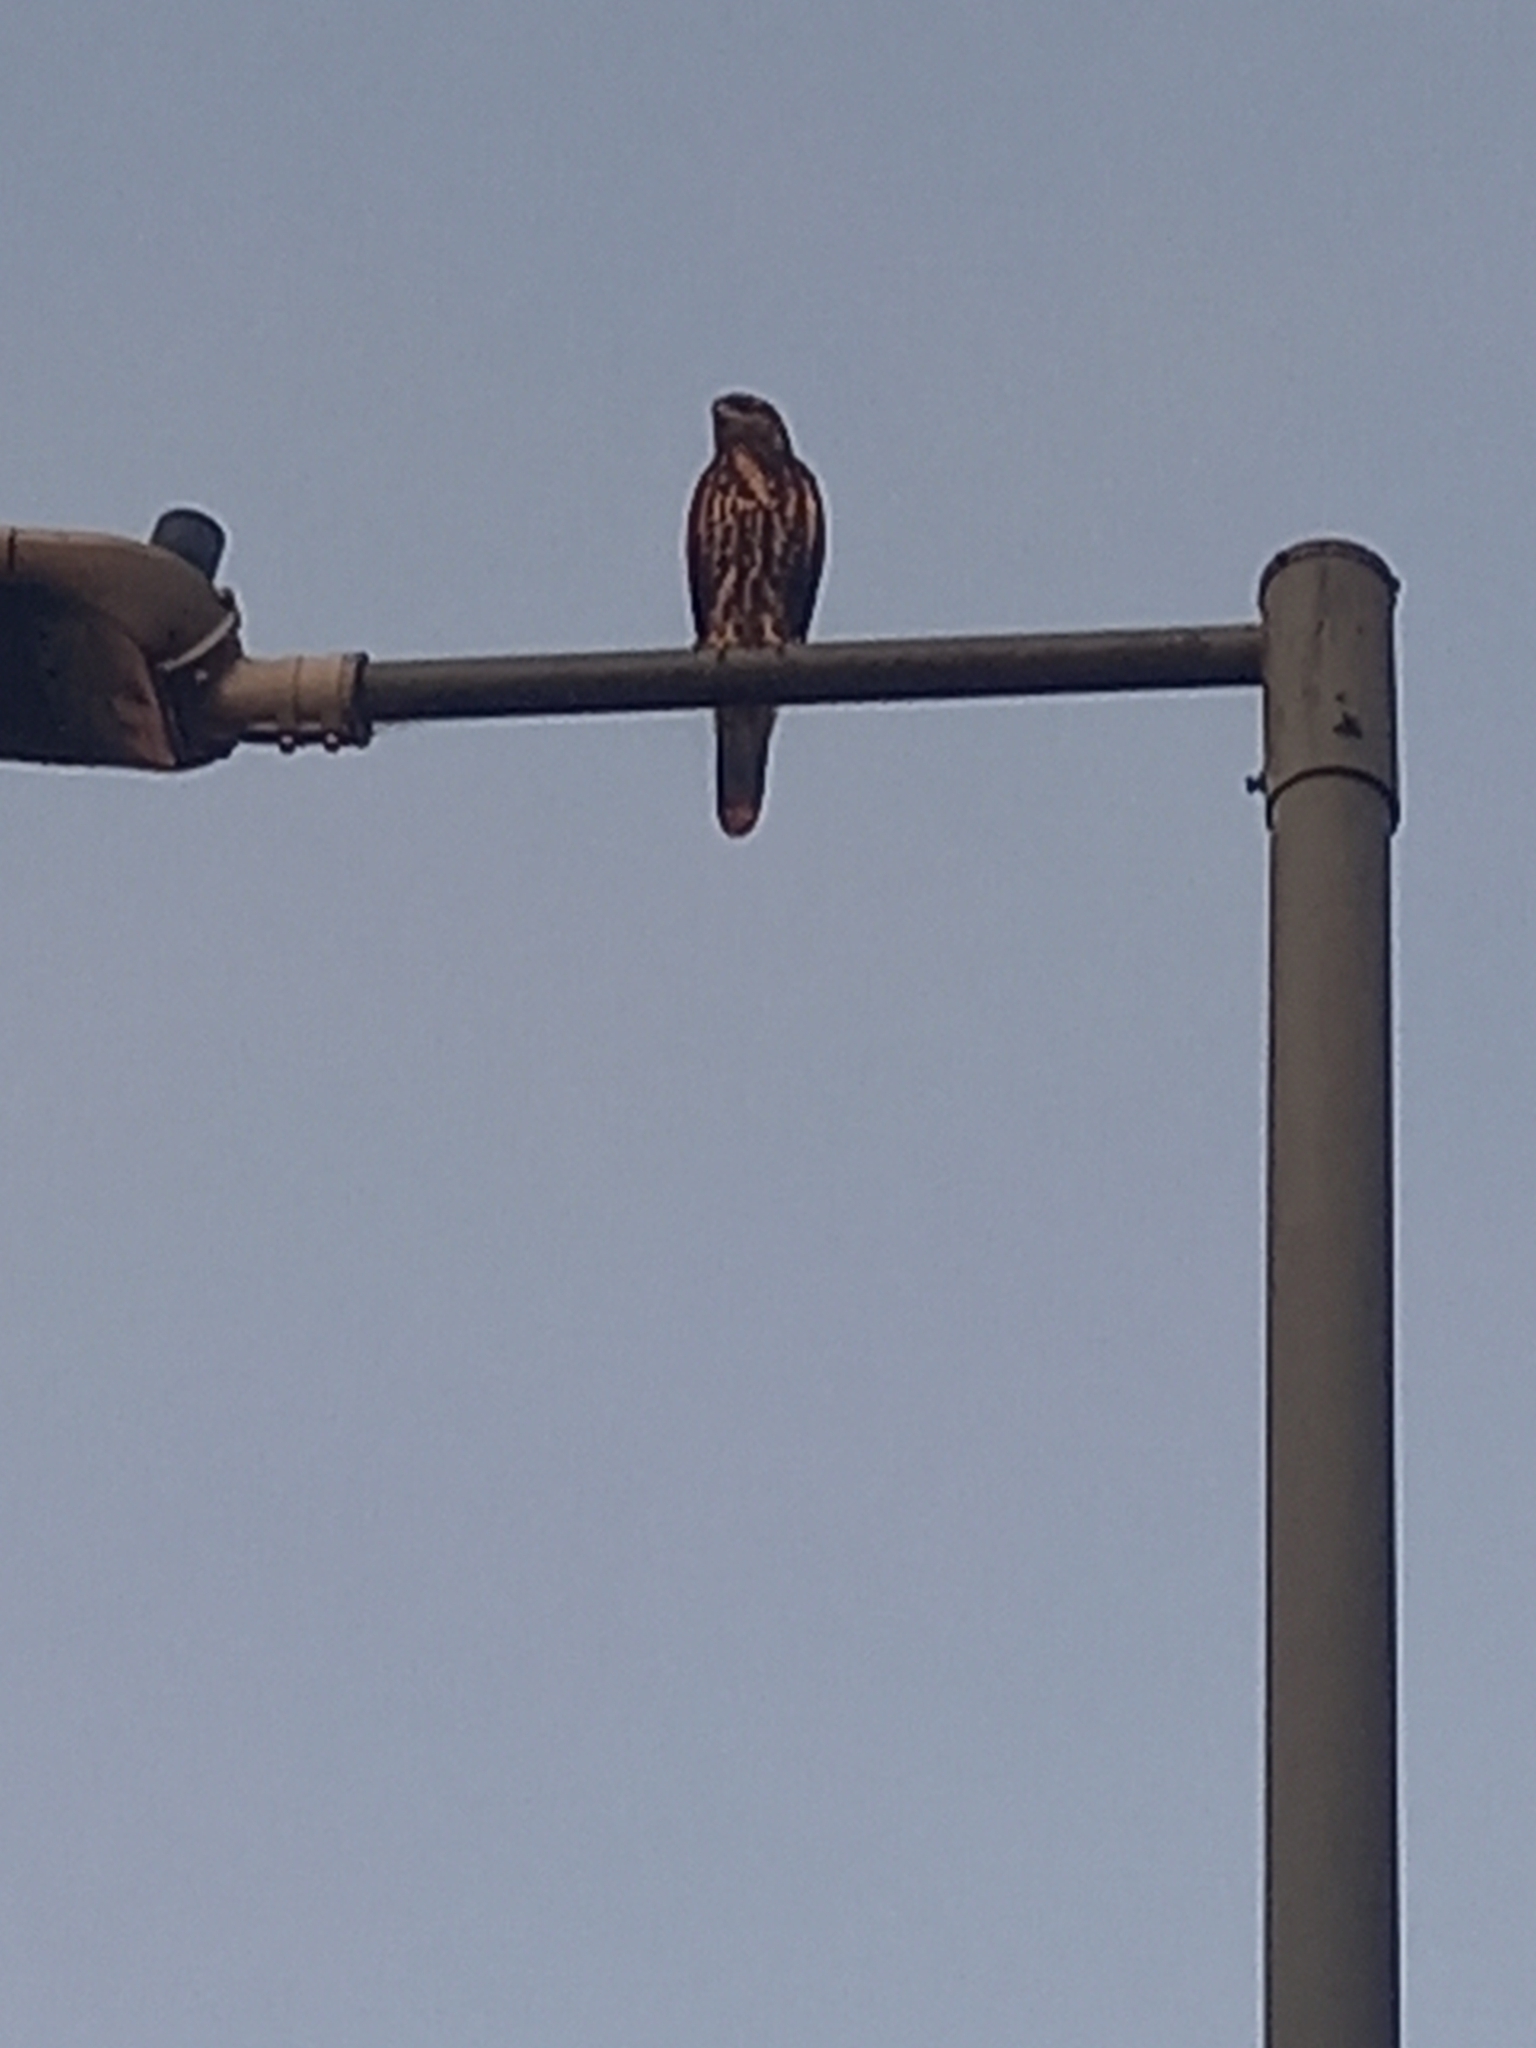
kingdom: Animalia
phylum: Chordata
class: Aves
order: Accipitriformes
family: Accipitridae
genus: Parabuteo
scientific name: Parabuteo unicinctus
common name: Harris's hawk
